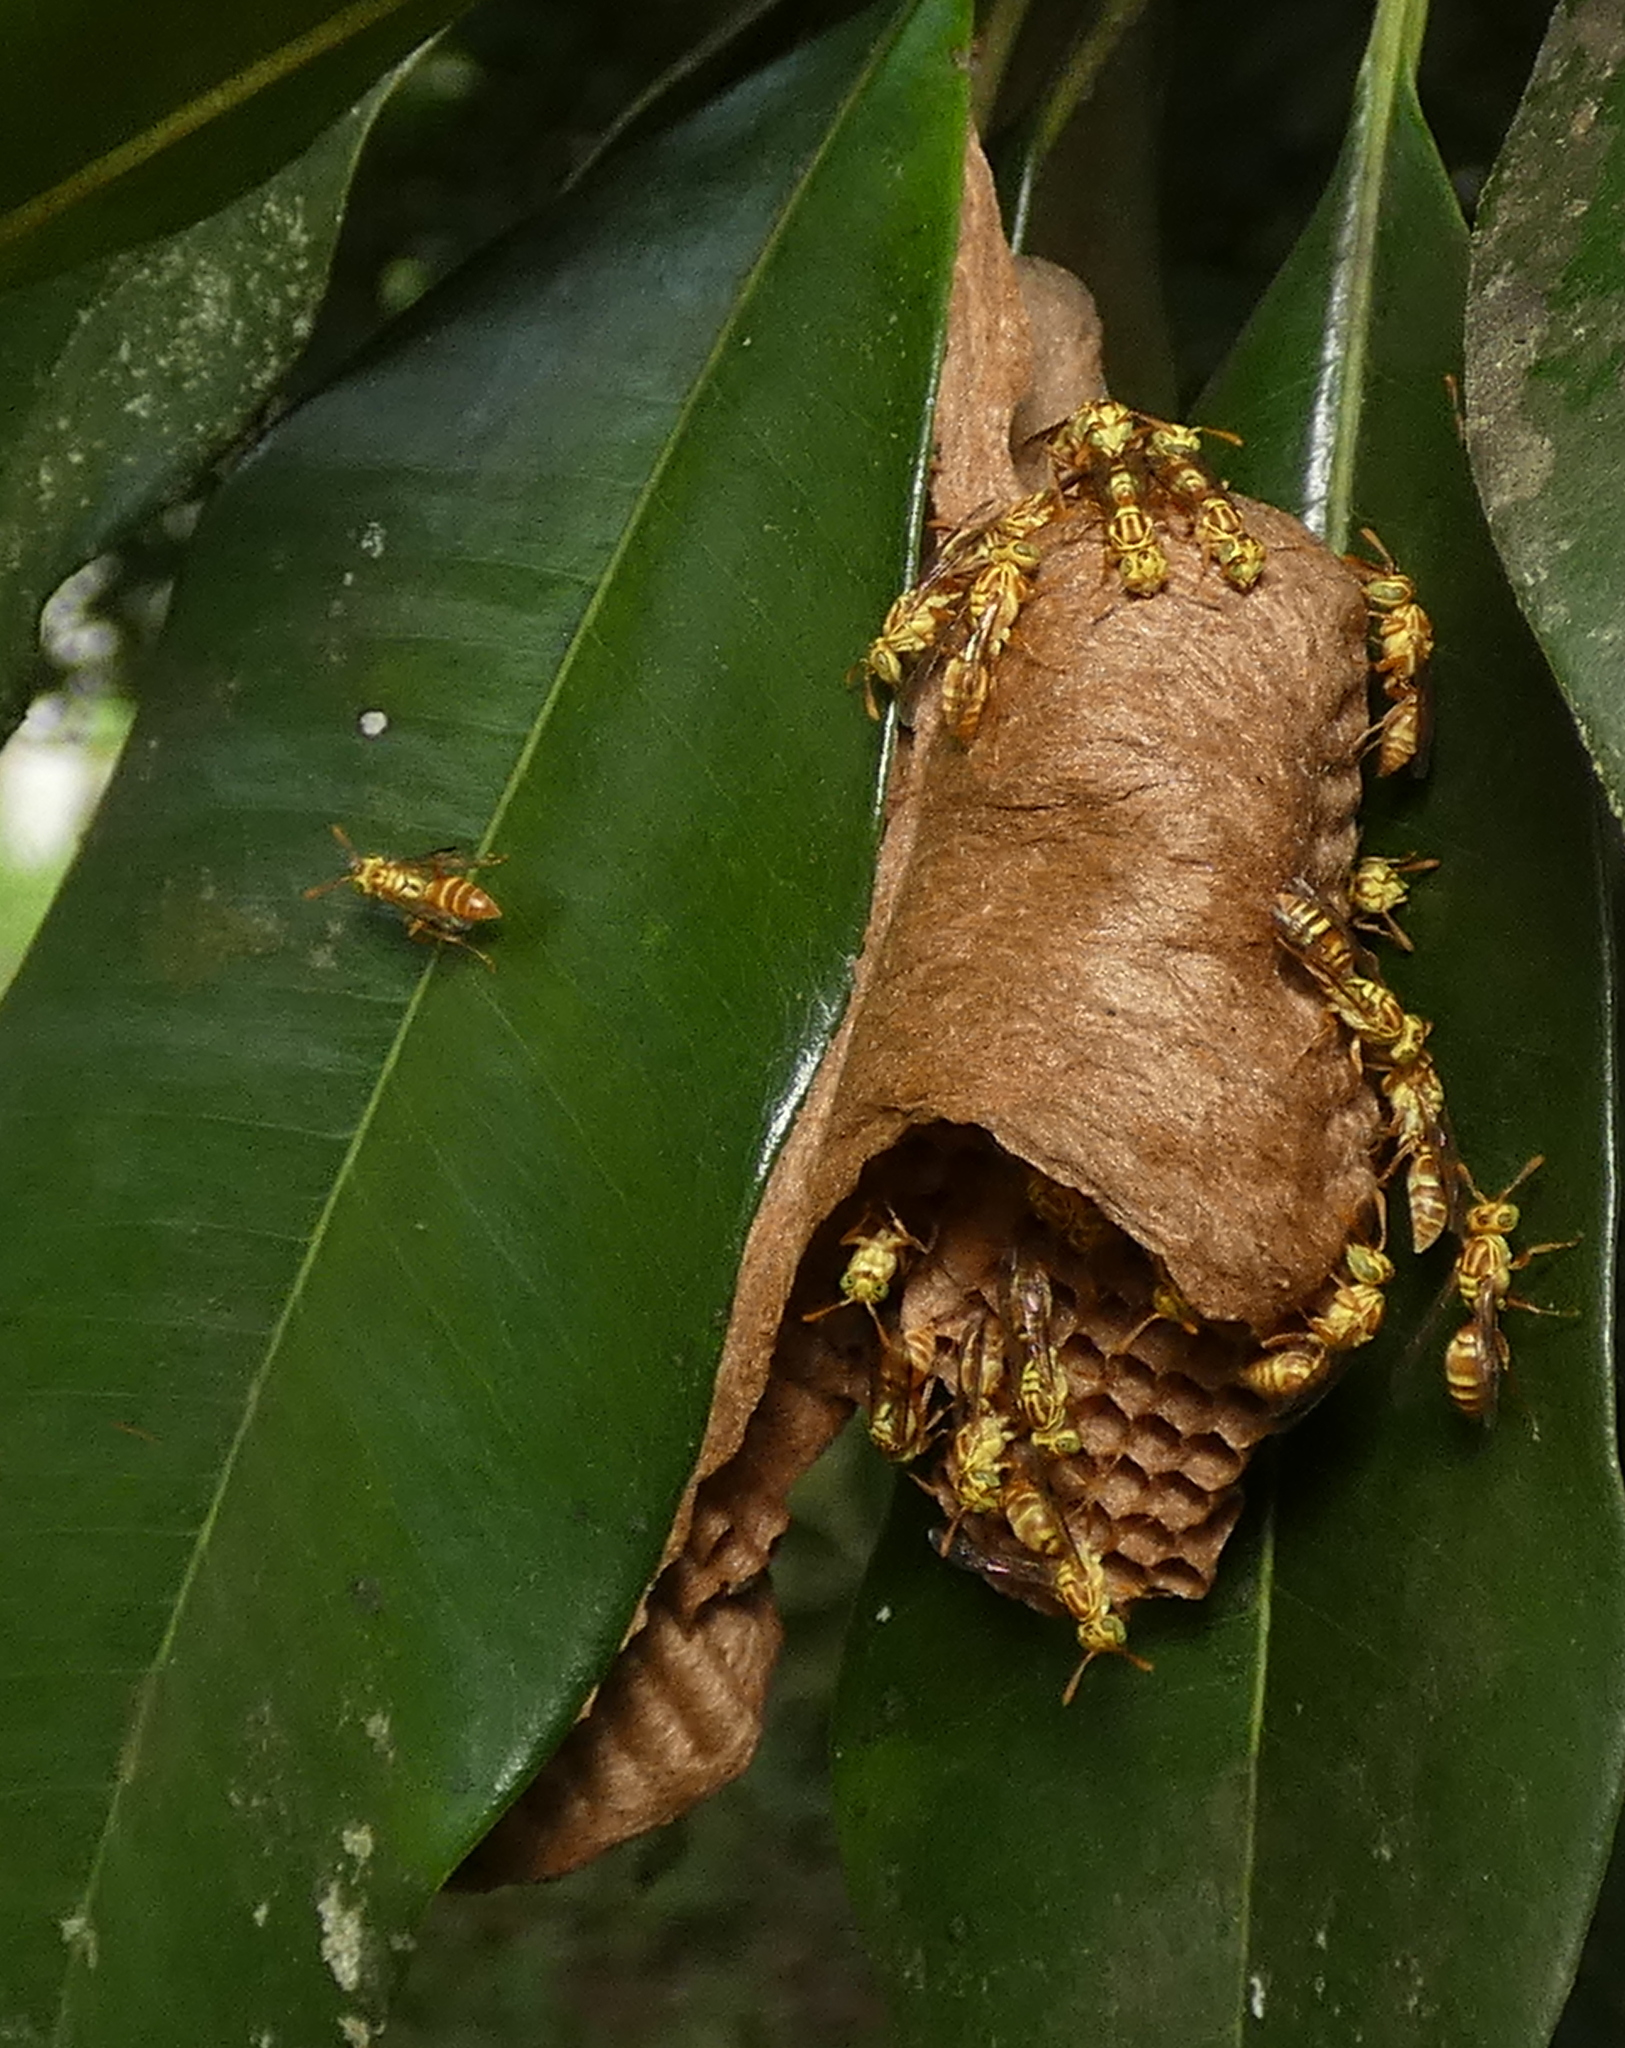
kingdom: Animalia
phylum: Arthropoda
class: Insecta
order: Hymenoptera
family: Vespidae
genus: Protopolybia
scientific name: Protopolybia potiguara
